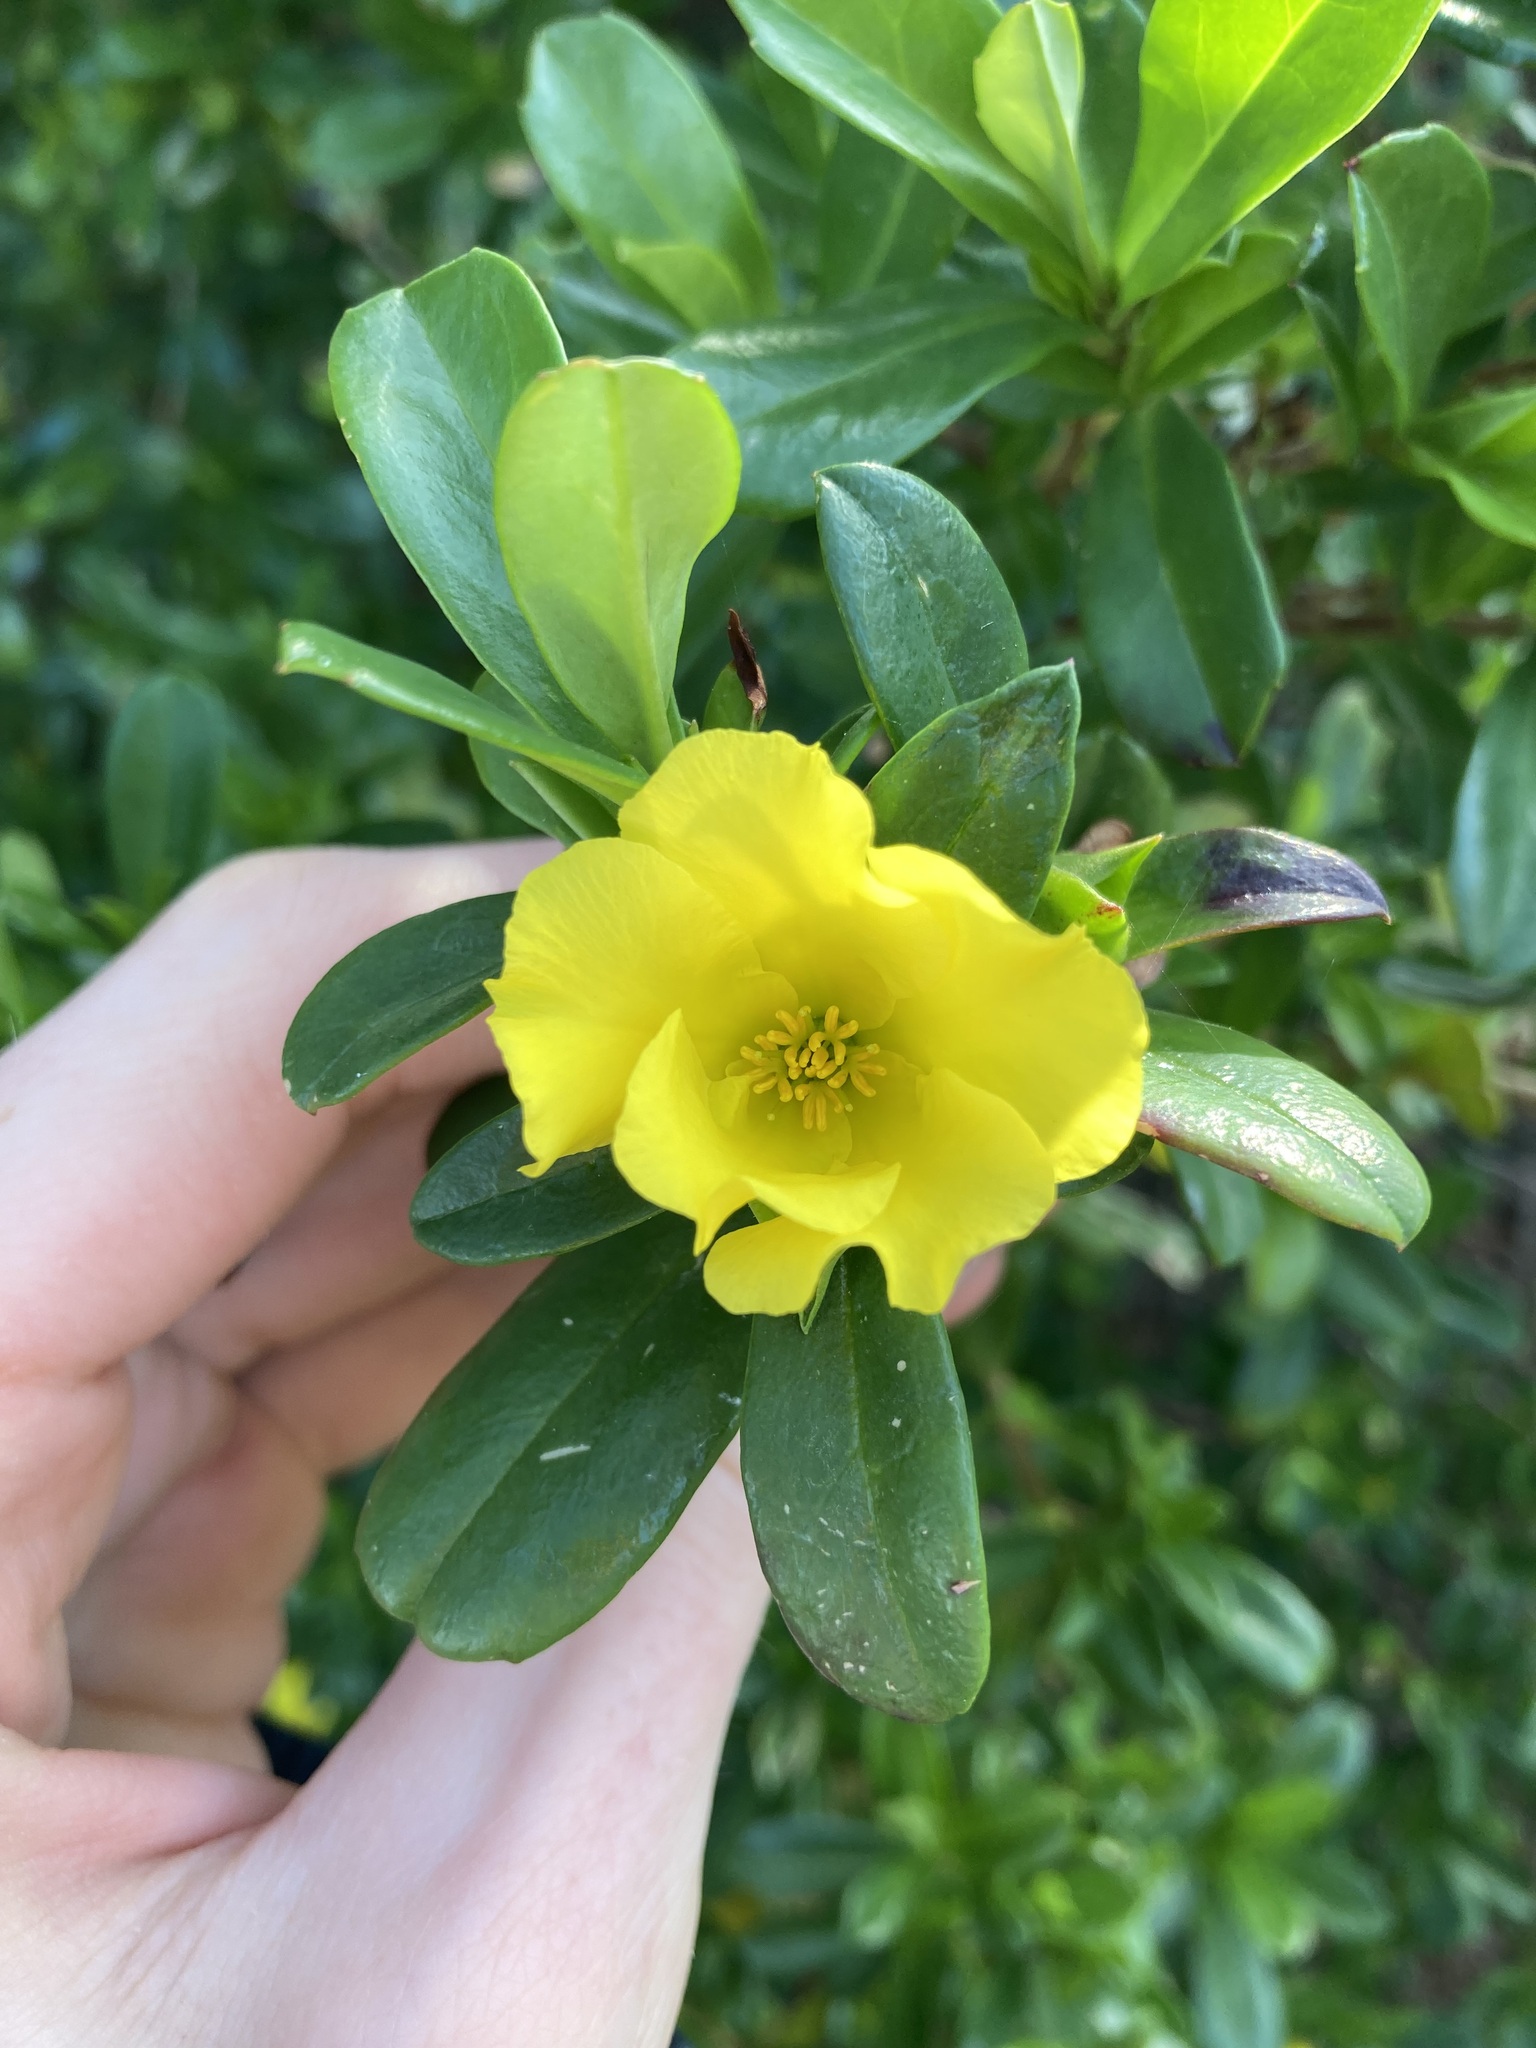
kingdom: Plantae
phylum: Tracheophyta
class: Magnoliopsida
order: Dilleniales
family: Dilleniaceae
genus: Hibbertia
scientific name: Hibbertia cuneiformis
